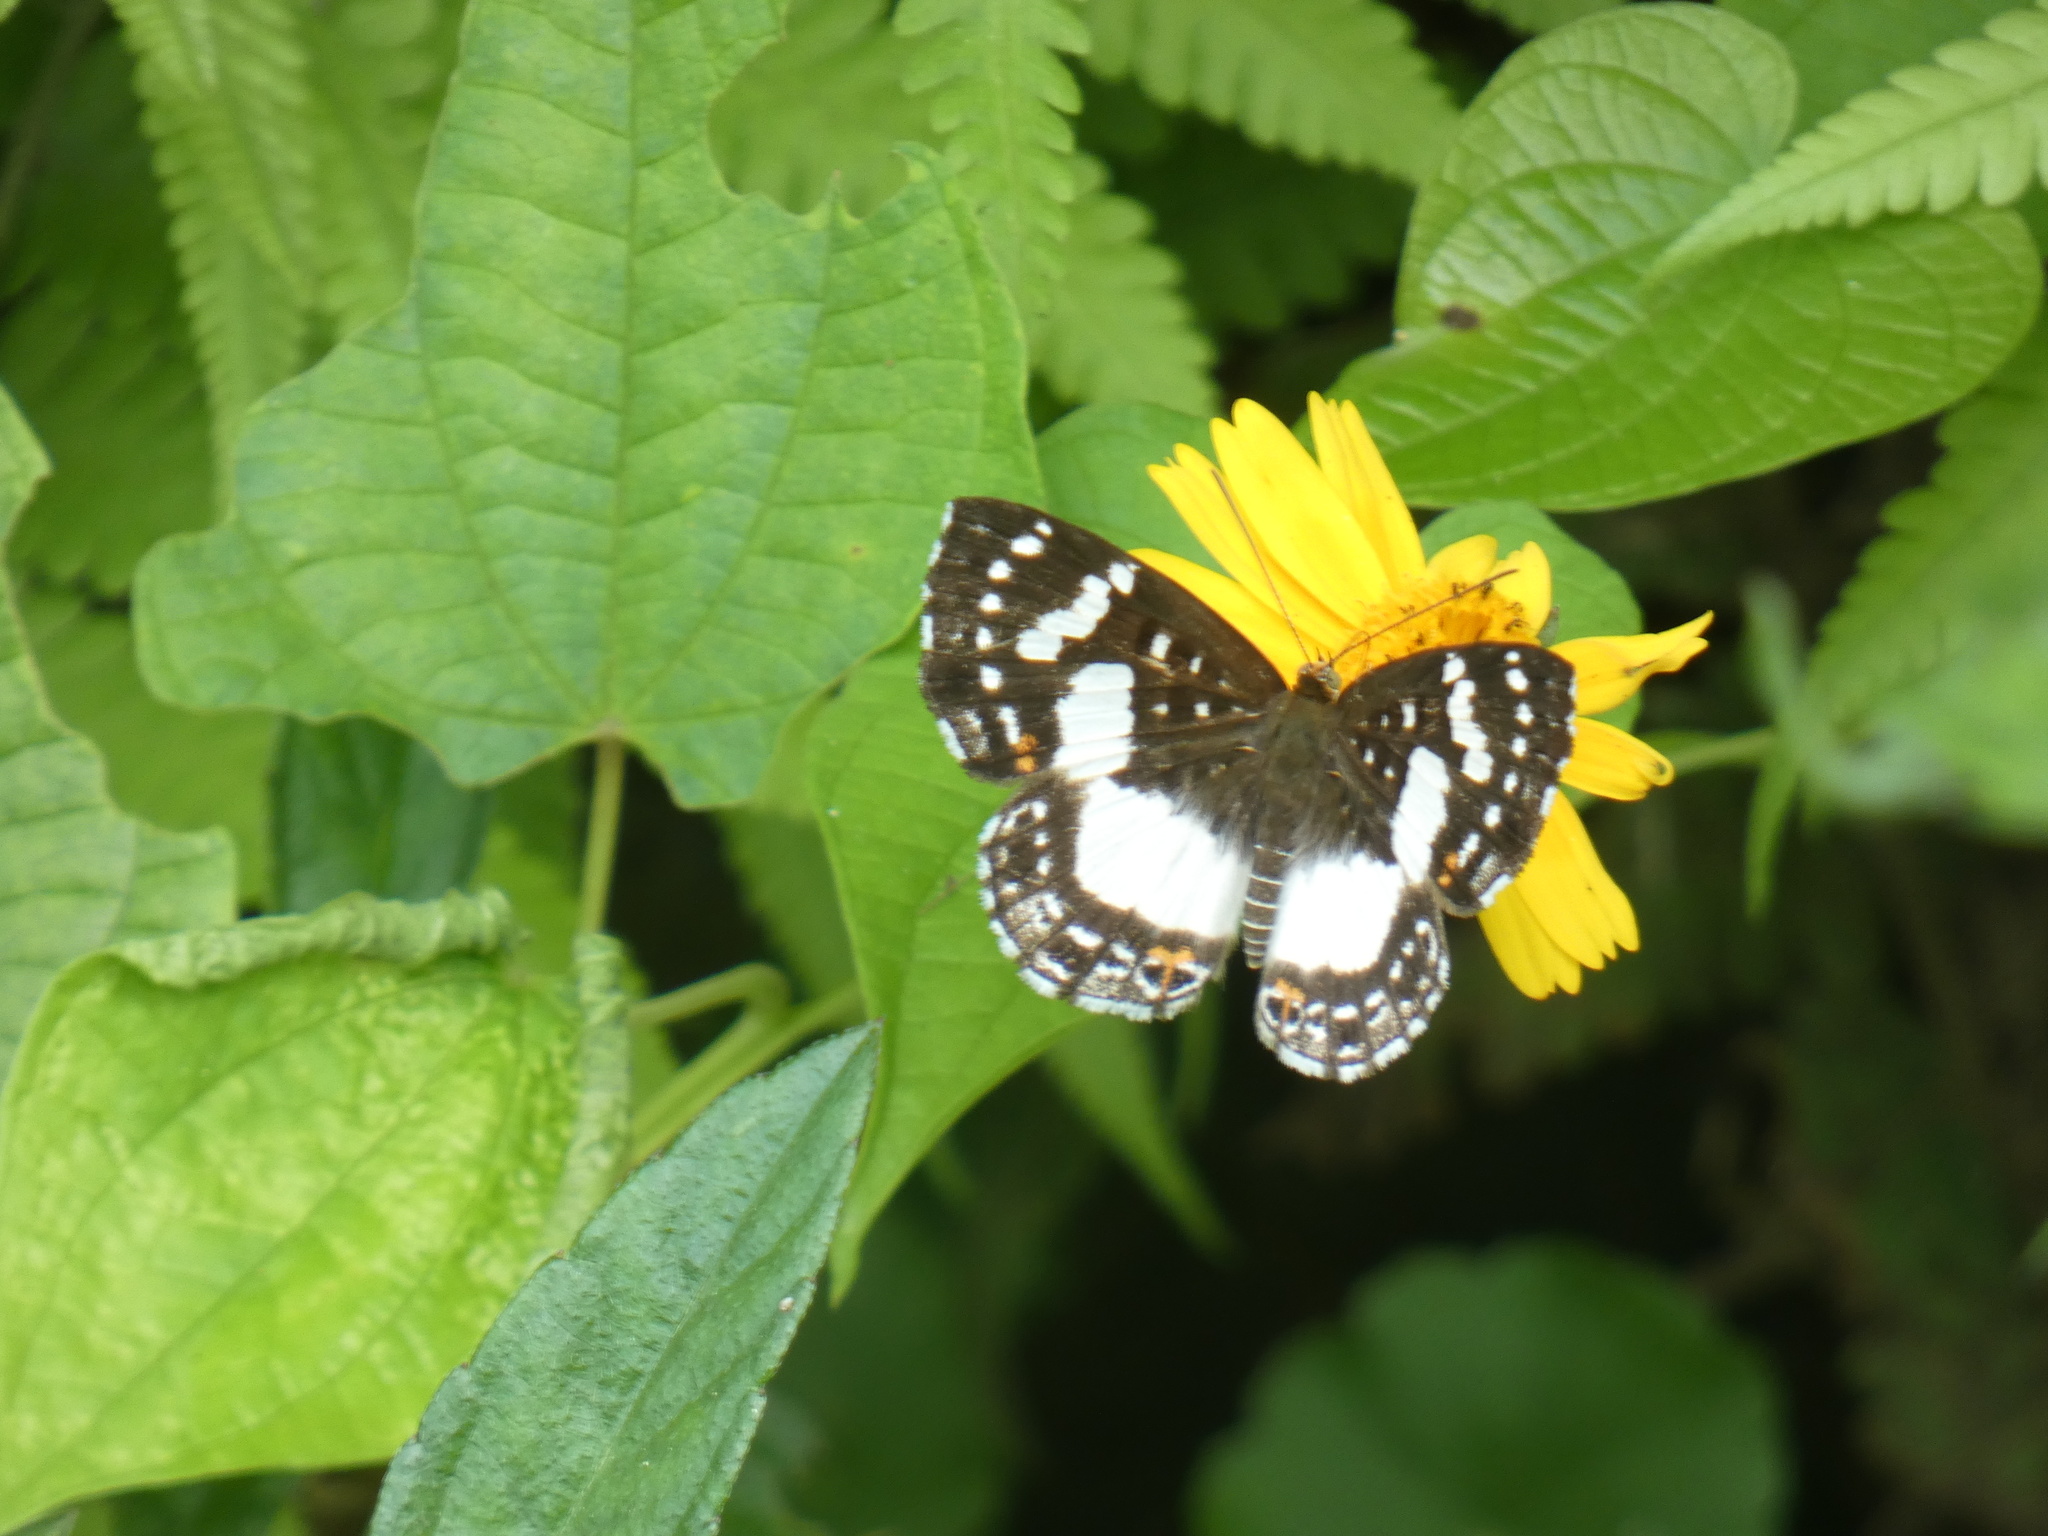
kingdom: Animalia
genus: Lemonias
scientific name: Lemonias zygia
